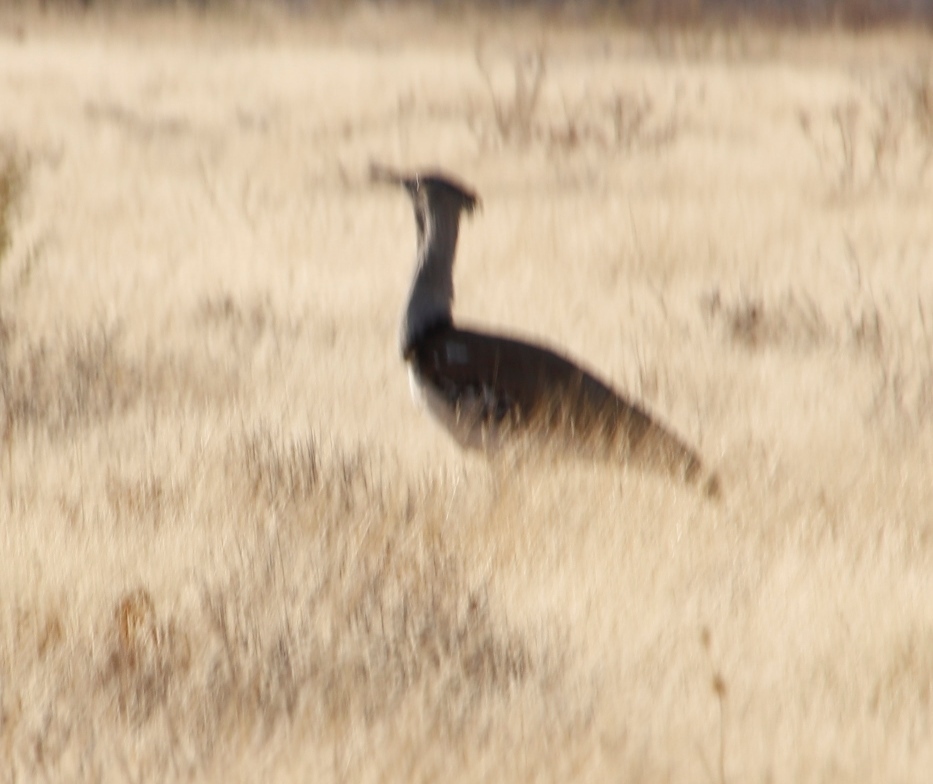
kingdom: Animalia
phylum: Chordata
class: Aves
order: Otidiformes
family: Otididae
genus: Ardeotis
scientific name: Ardeotis kori
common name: Kori bustard
